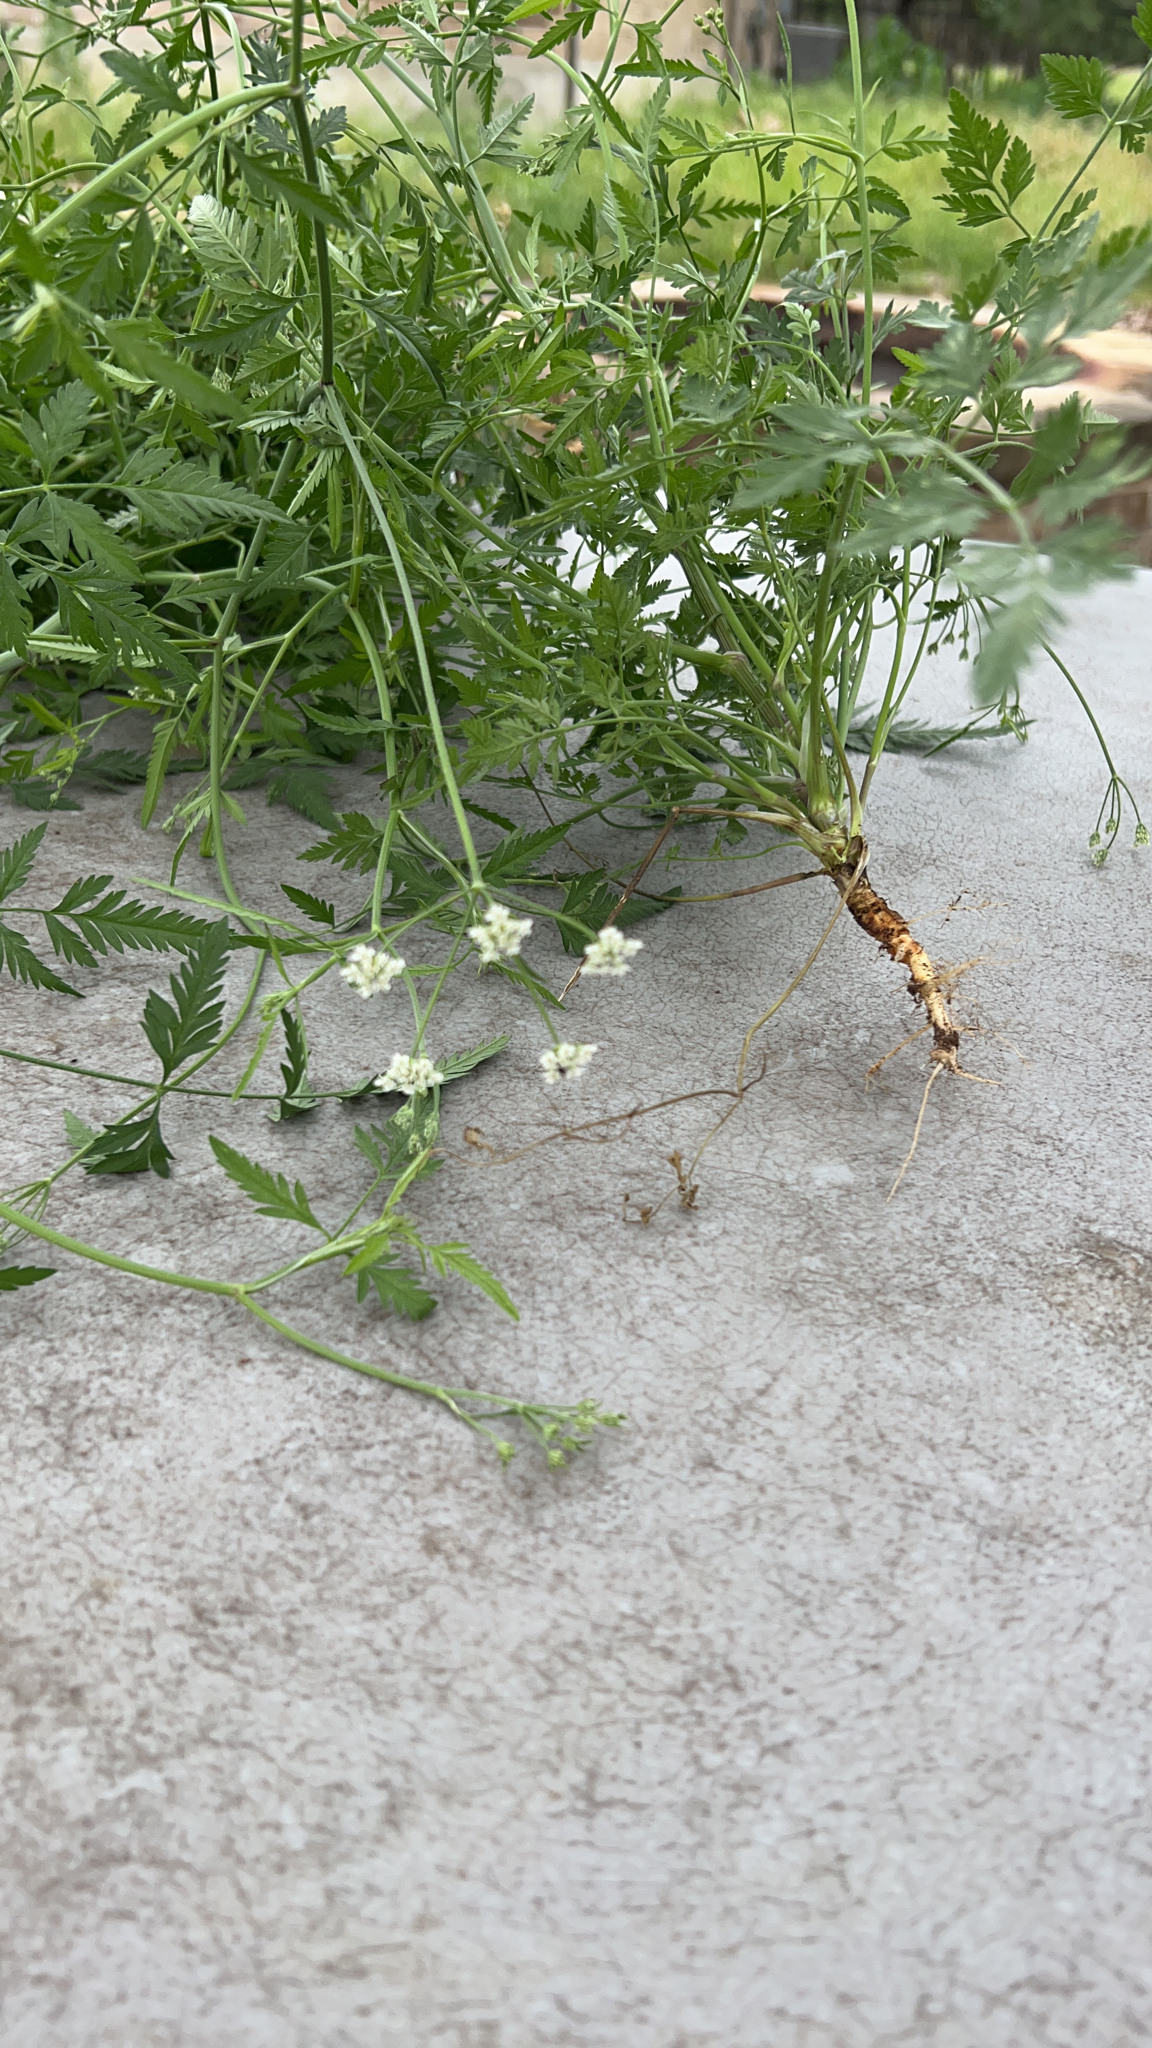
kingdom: Plantae
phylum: Tracheophyta
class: Magnoliopsida
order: Apiales
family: Apiaceae
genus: Torilis
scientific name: Torilis arvensis
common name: Spreading hedge-parsley
